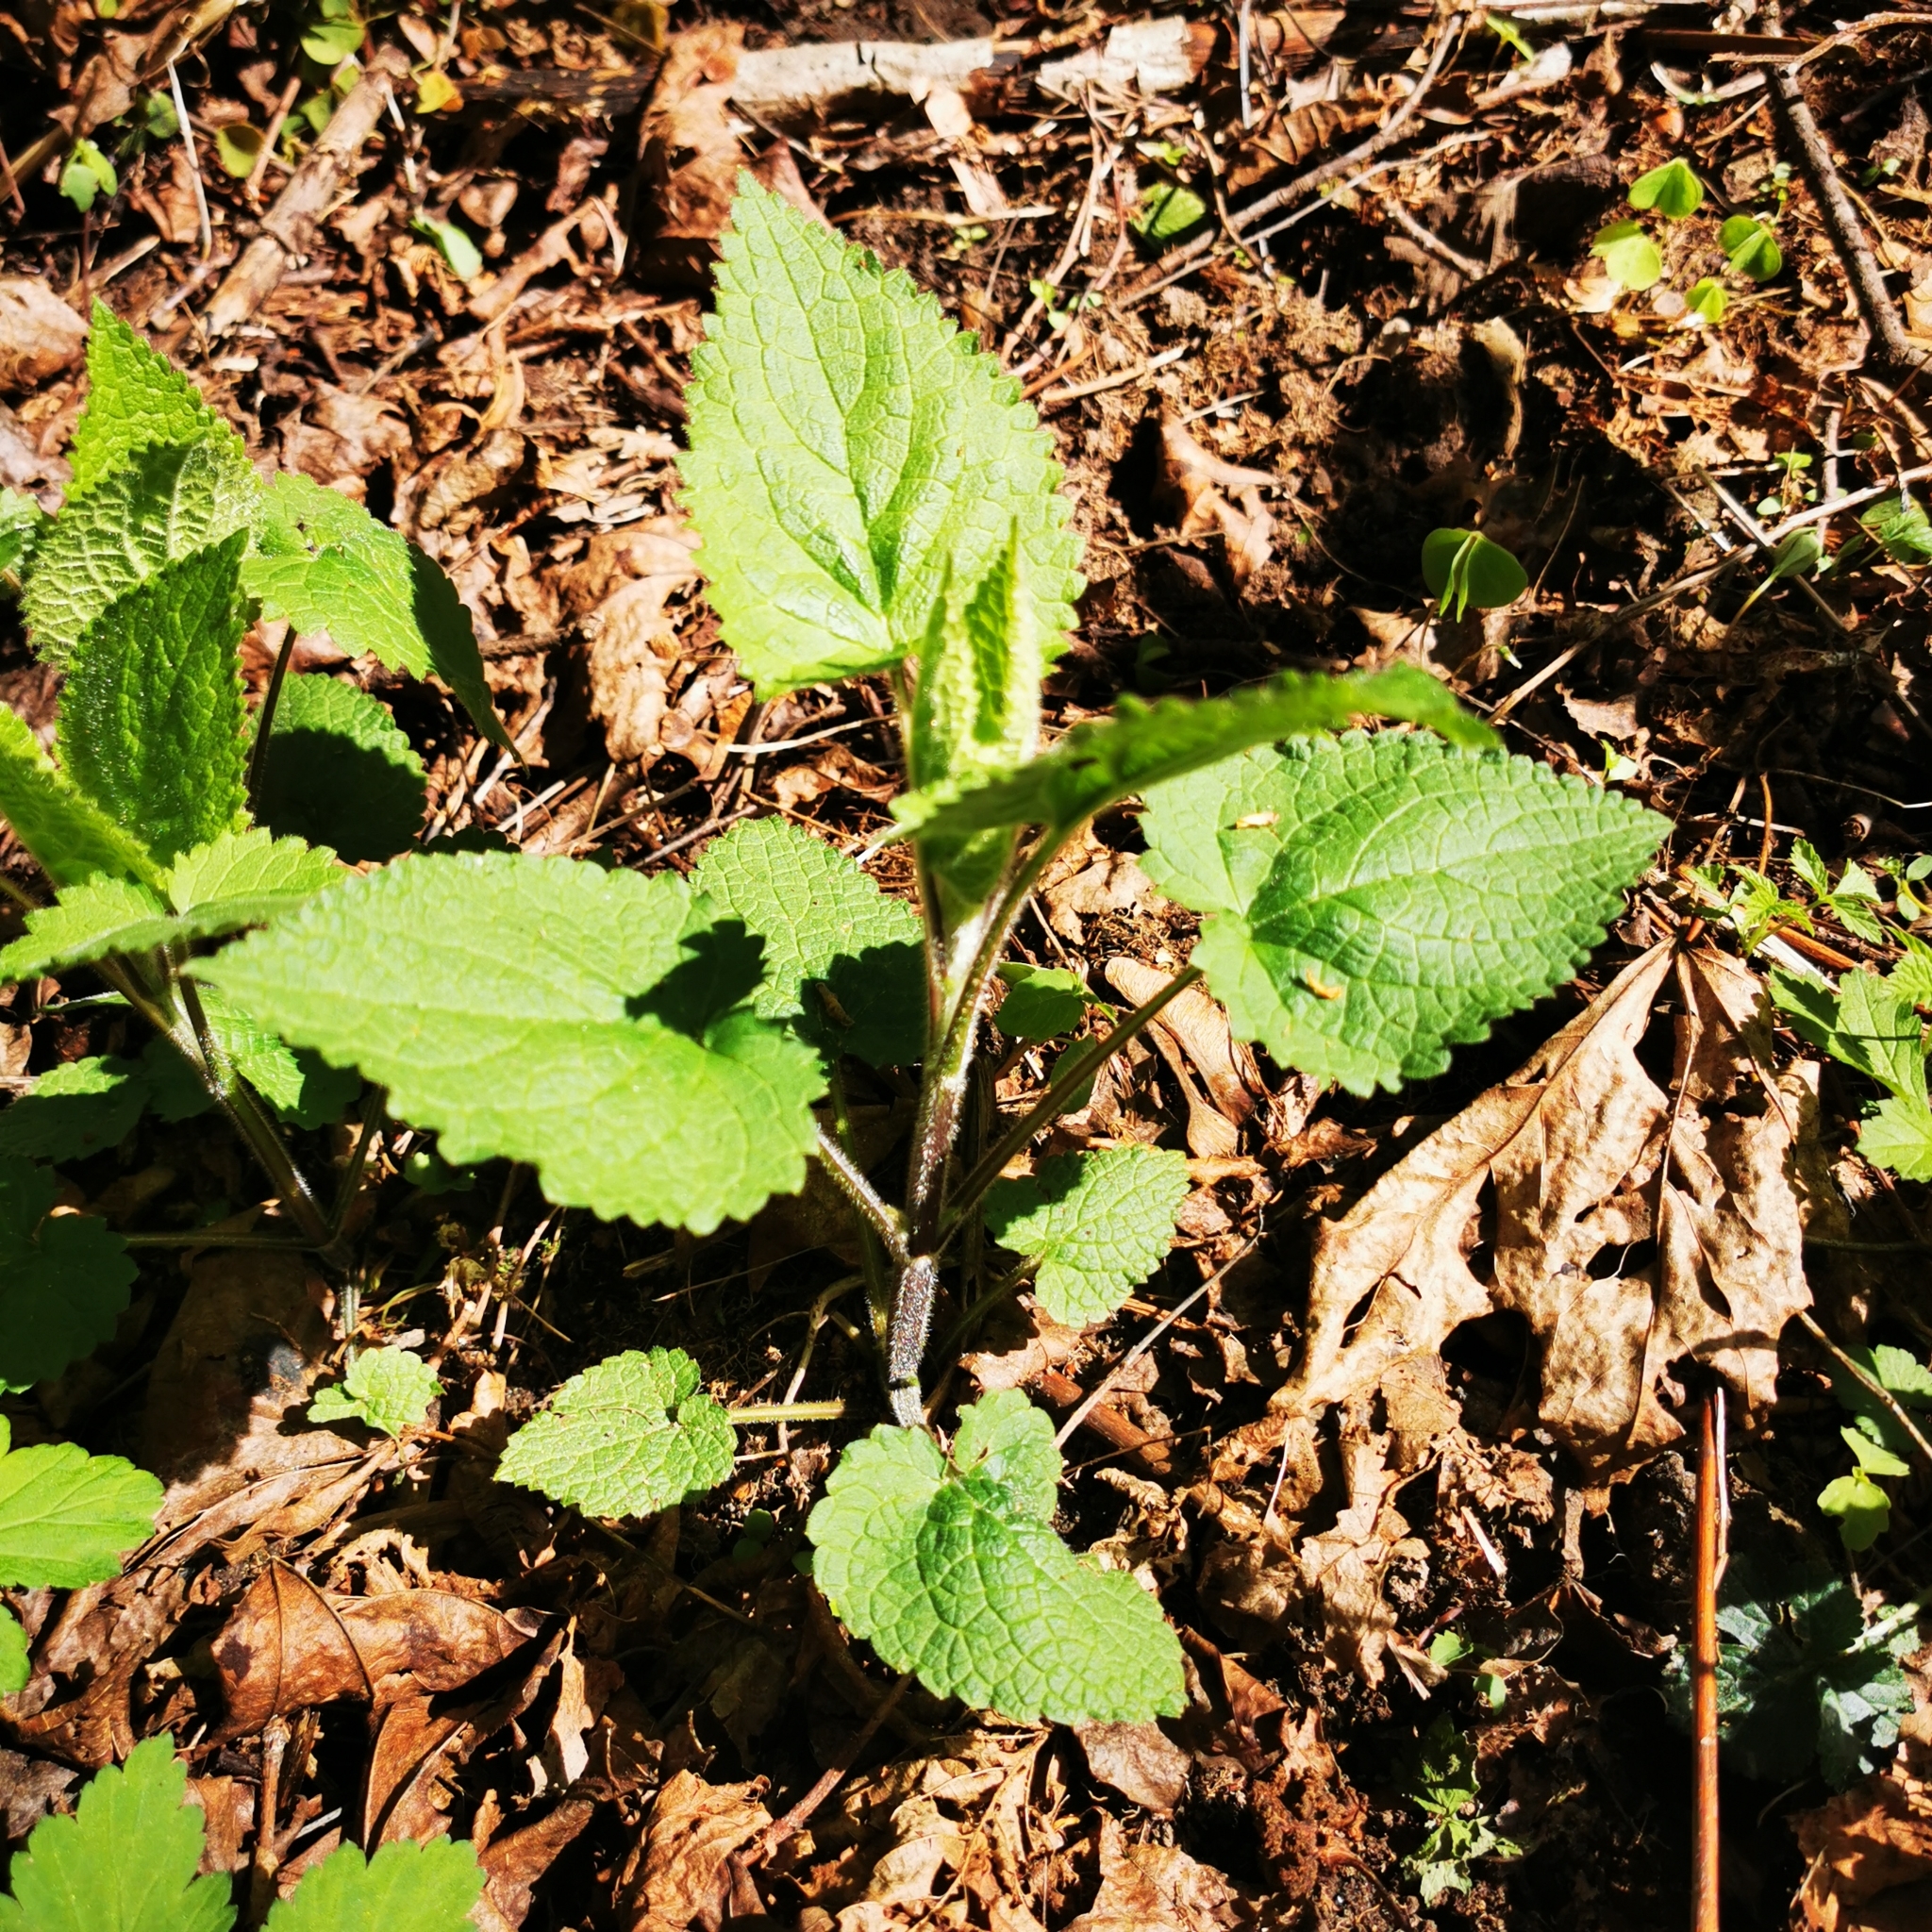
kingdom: Plantae
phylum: Tracheophyta
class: Magnoliopsida
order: Lamiales
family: Lamiaceae
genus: Stachys
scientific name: Stachys sylvatica
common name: Hedge woundwort
